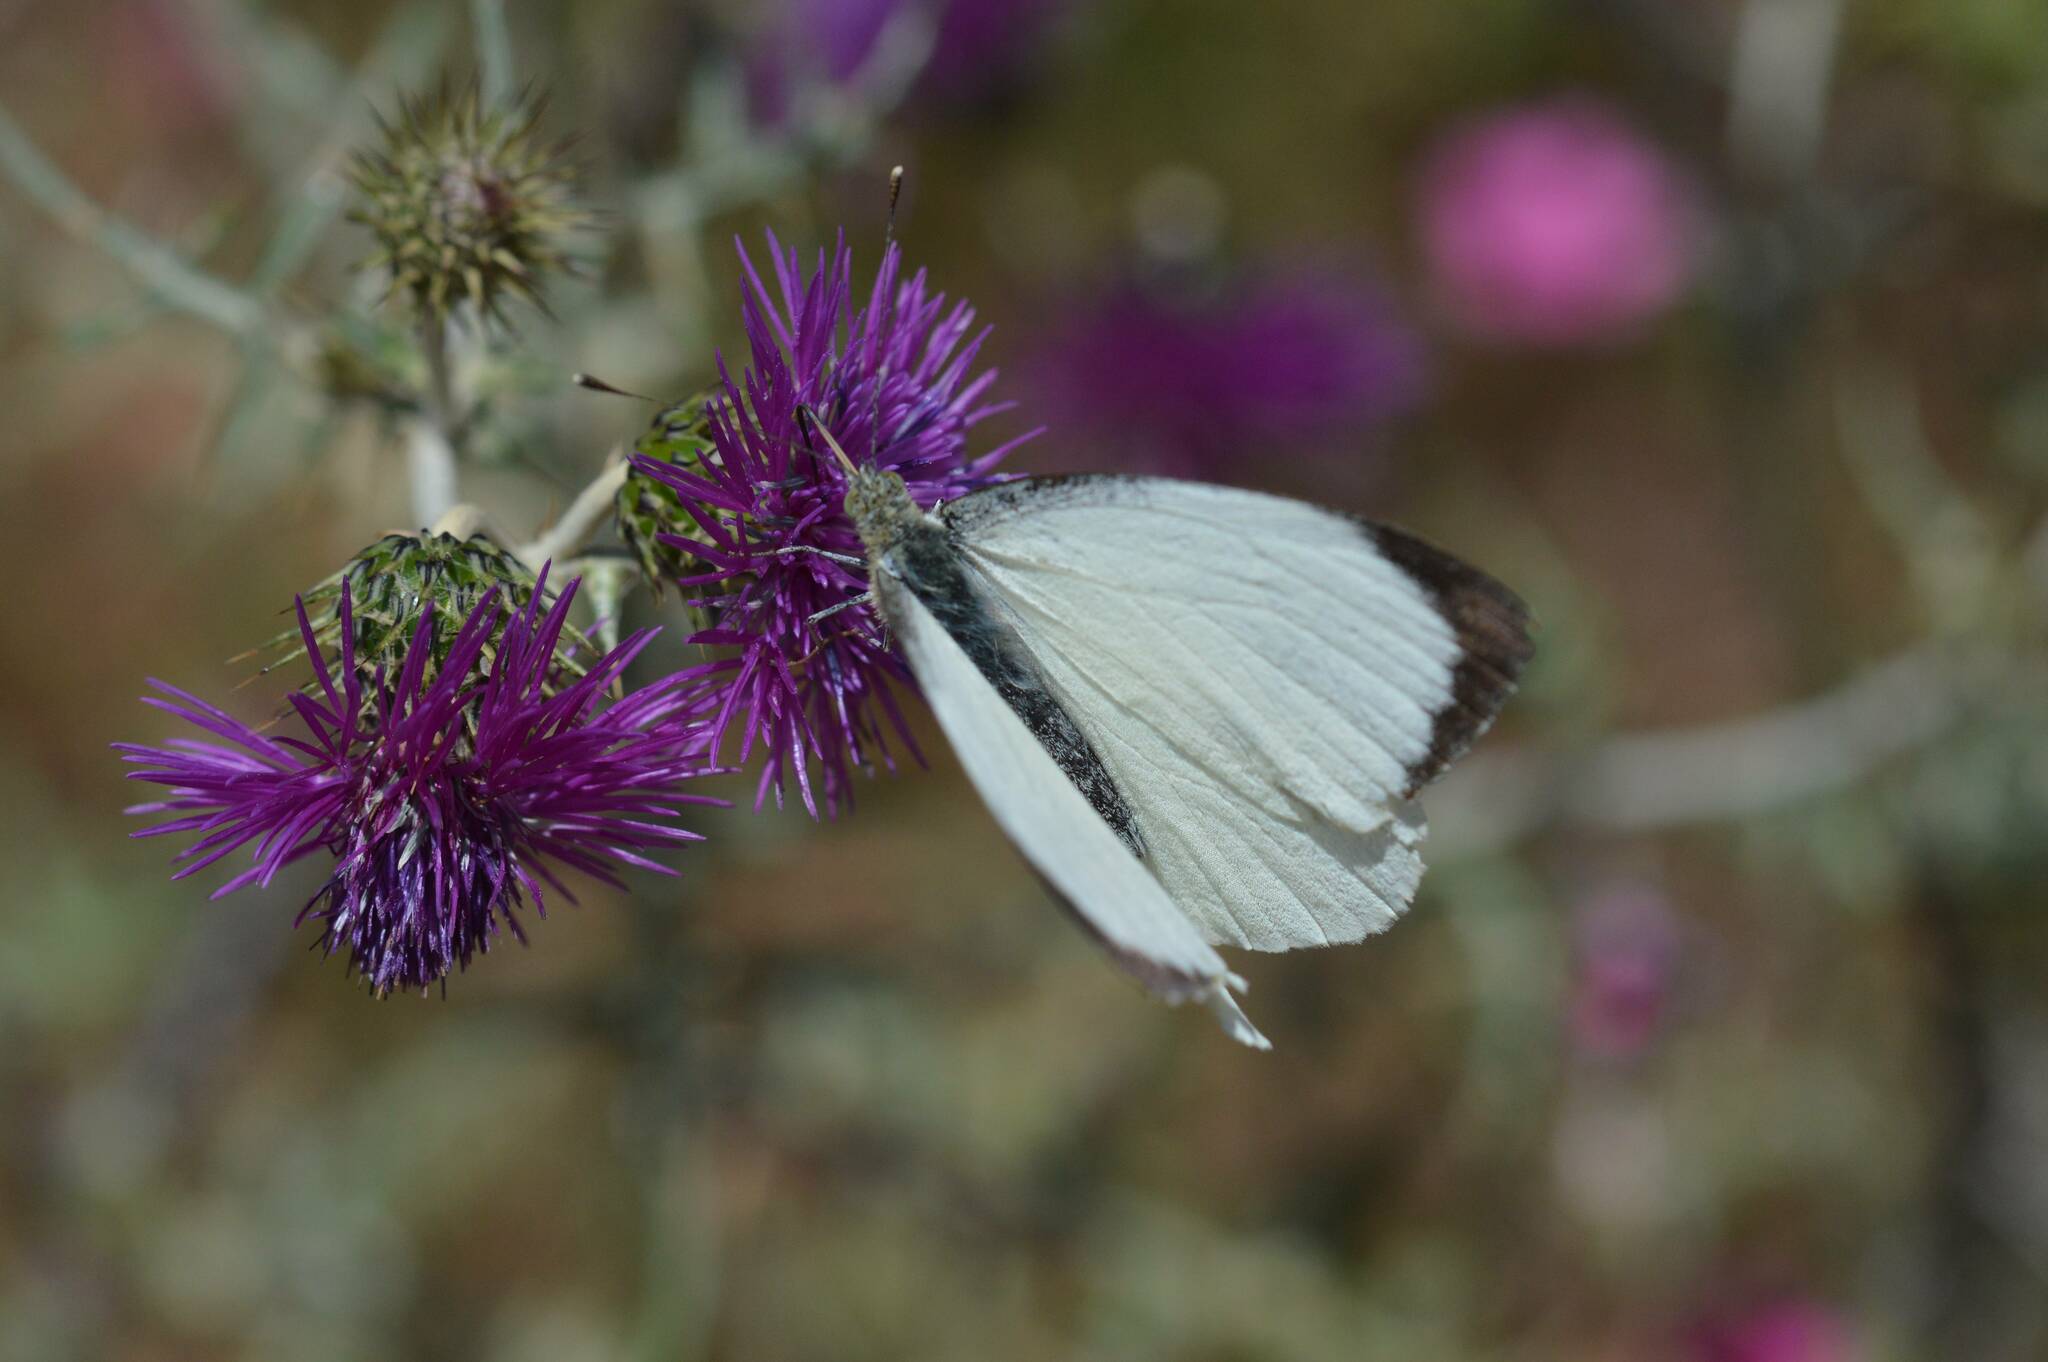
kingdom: Animalia
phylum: Arthropoda
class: Insecta
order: Lepidoptera
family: Pieridae
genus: Pieris
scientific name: Pieris brassicae
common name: Large white
